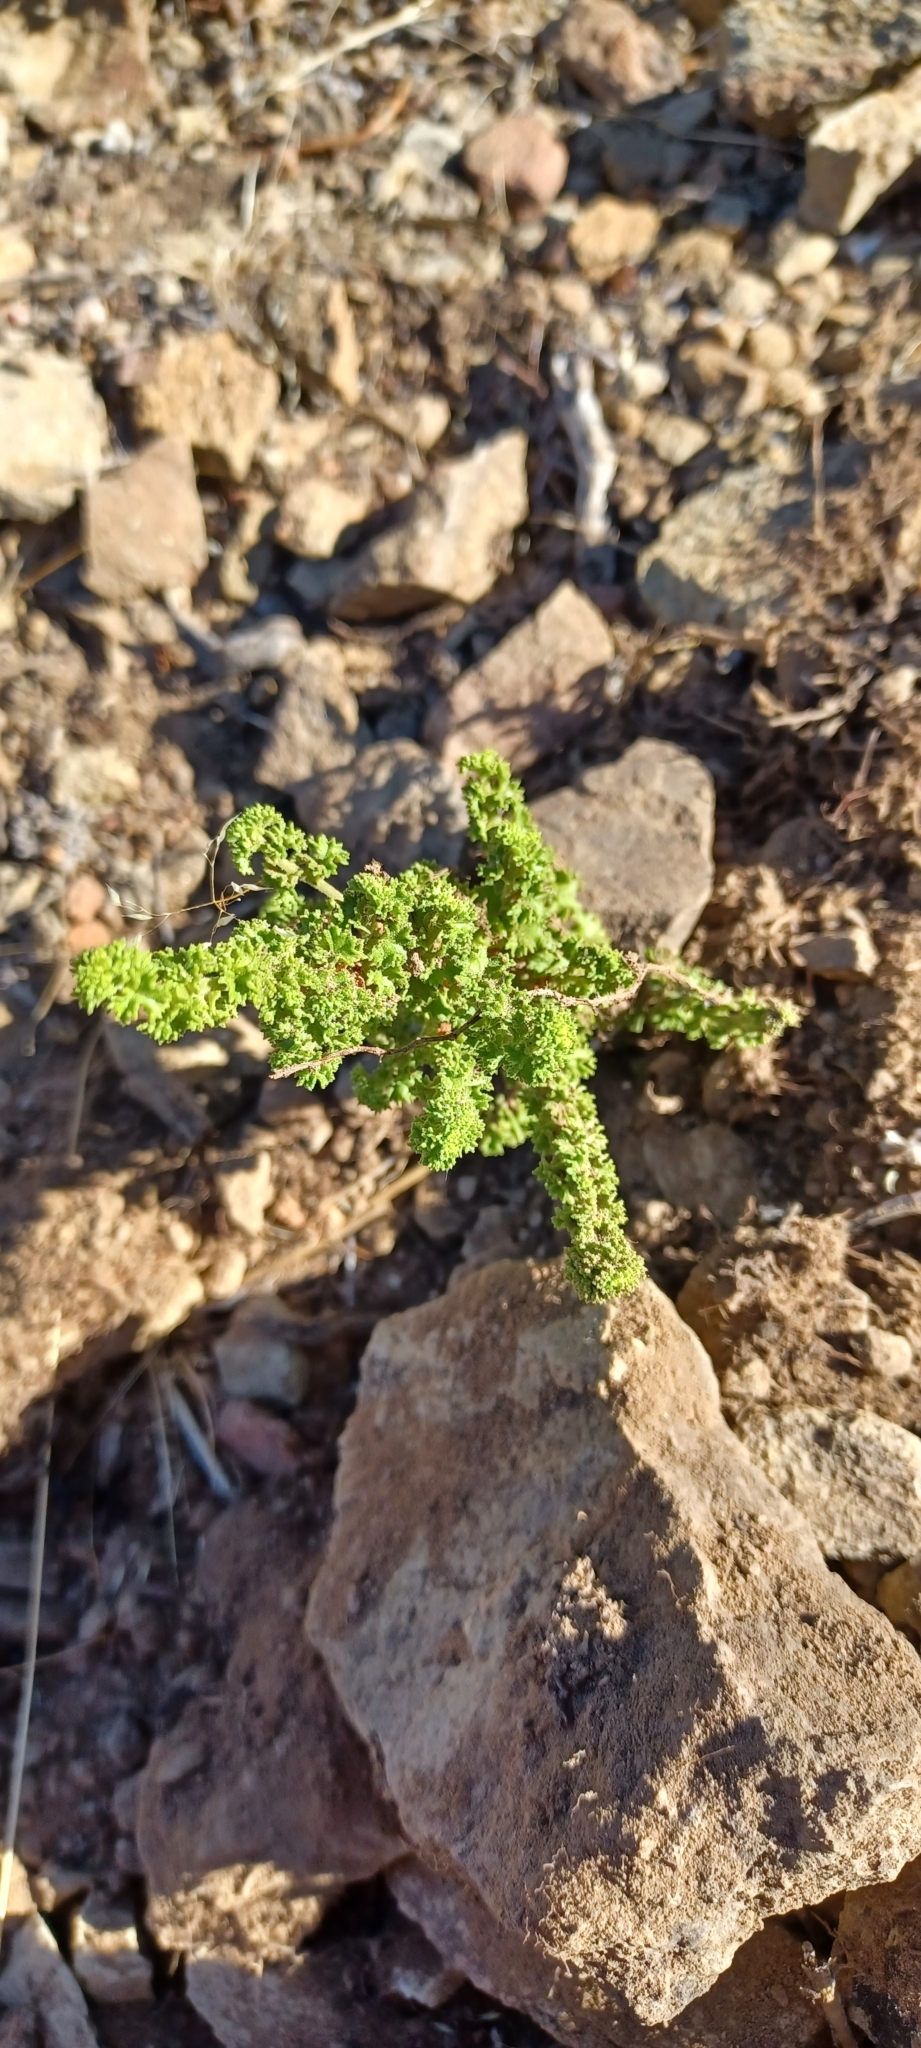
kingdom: Plantae
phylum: Tracheophyta
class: Magnoliopsida
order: Geraniales
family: Geraniaceae
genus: Pelargonium
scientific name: Pelargonium crispum
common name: Crisped-leaf pelargonium
